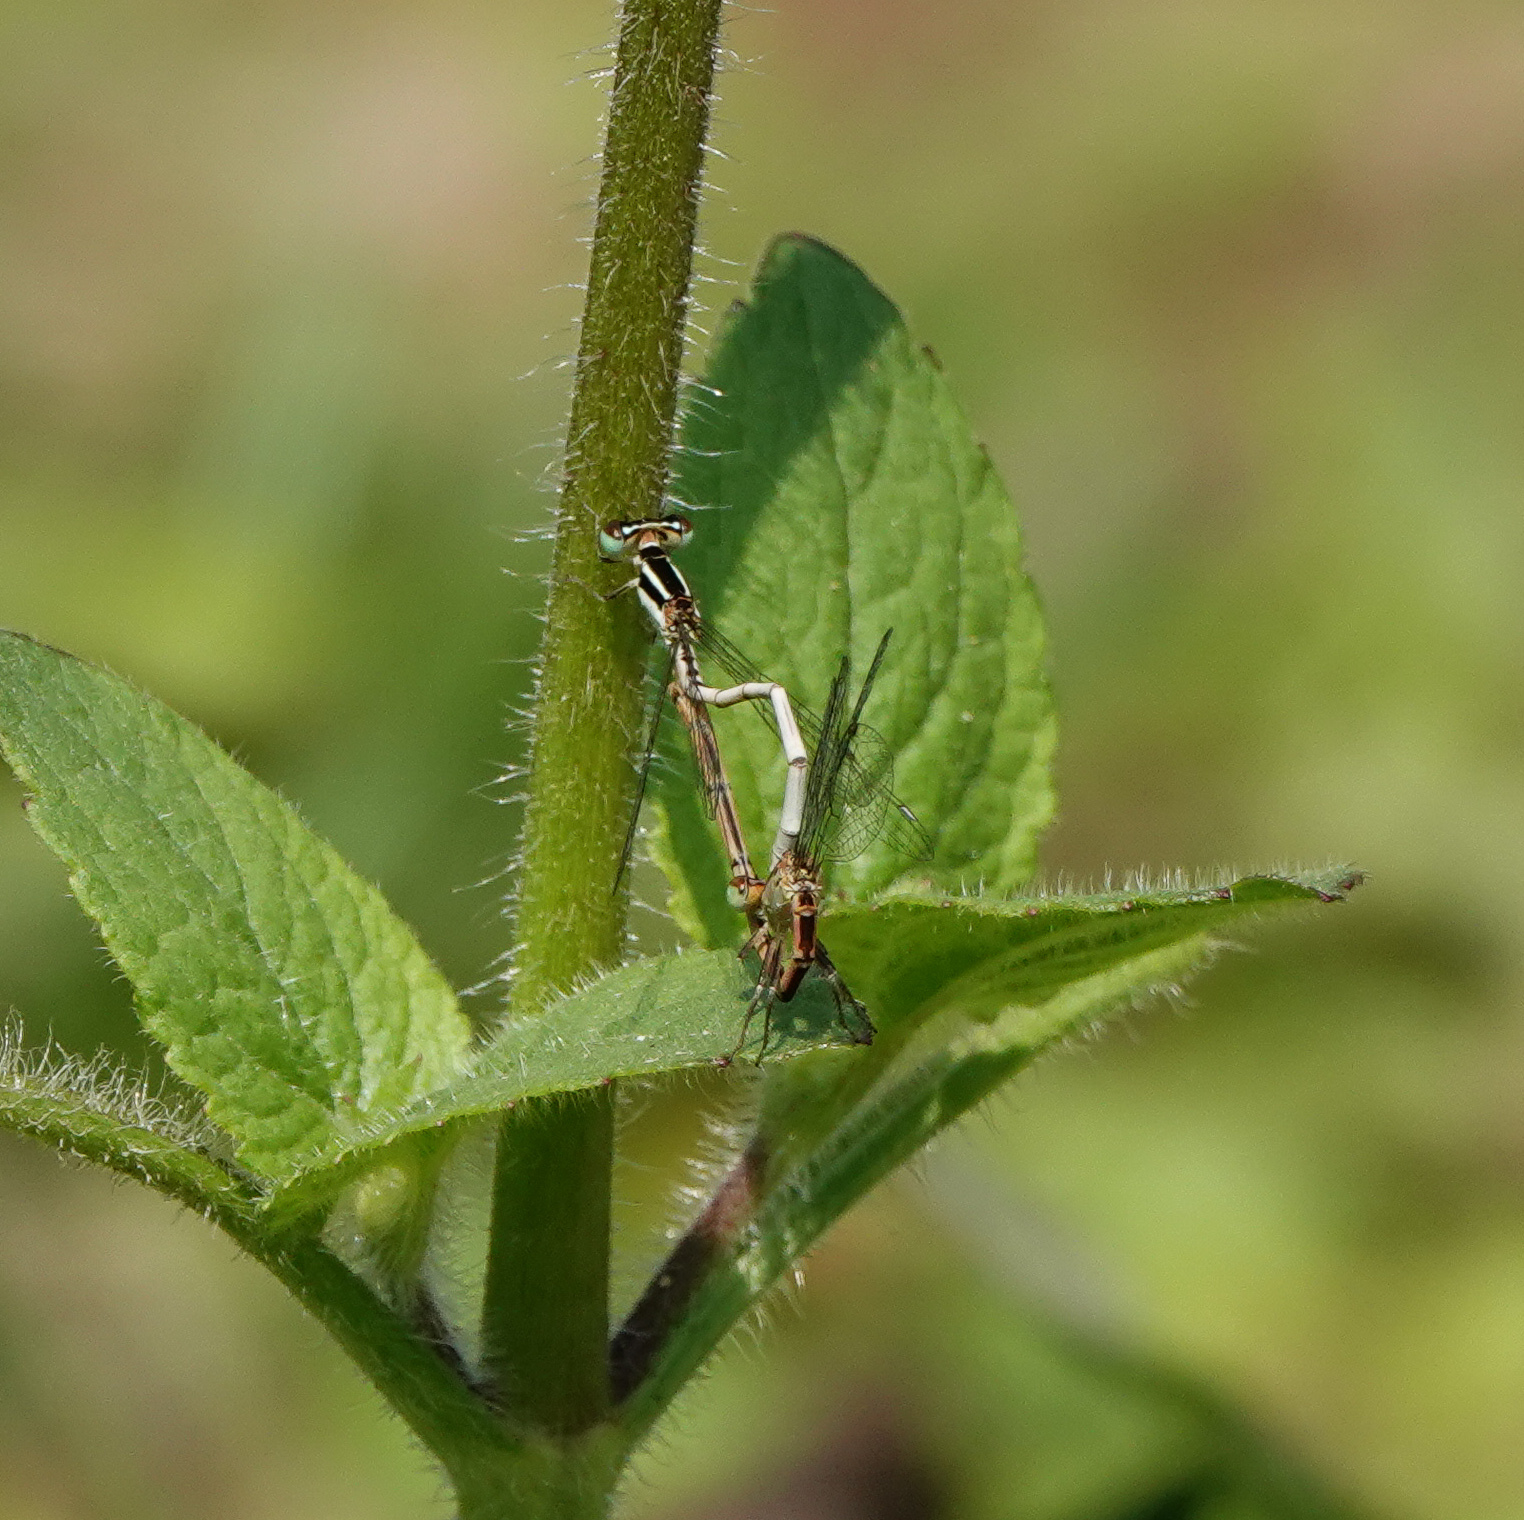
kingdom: Animalia
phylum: Arthropoda
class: Insecta
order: Odonata
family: Coenagrionidae
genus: Agriocnemis
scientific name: Agriocnemis lacteola
